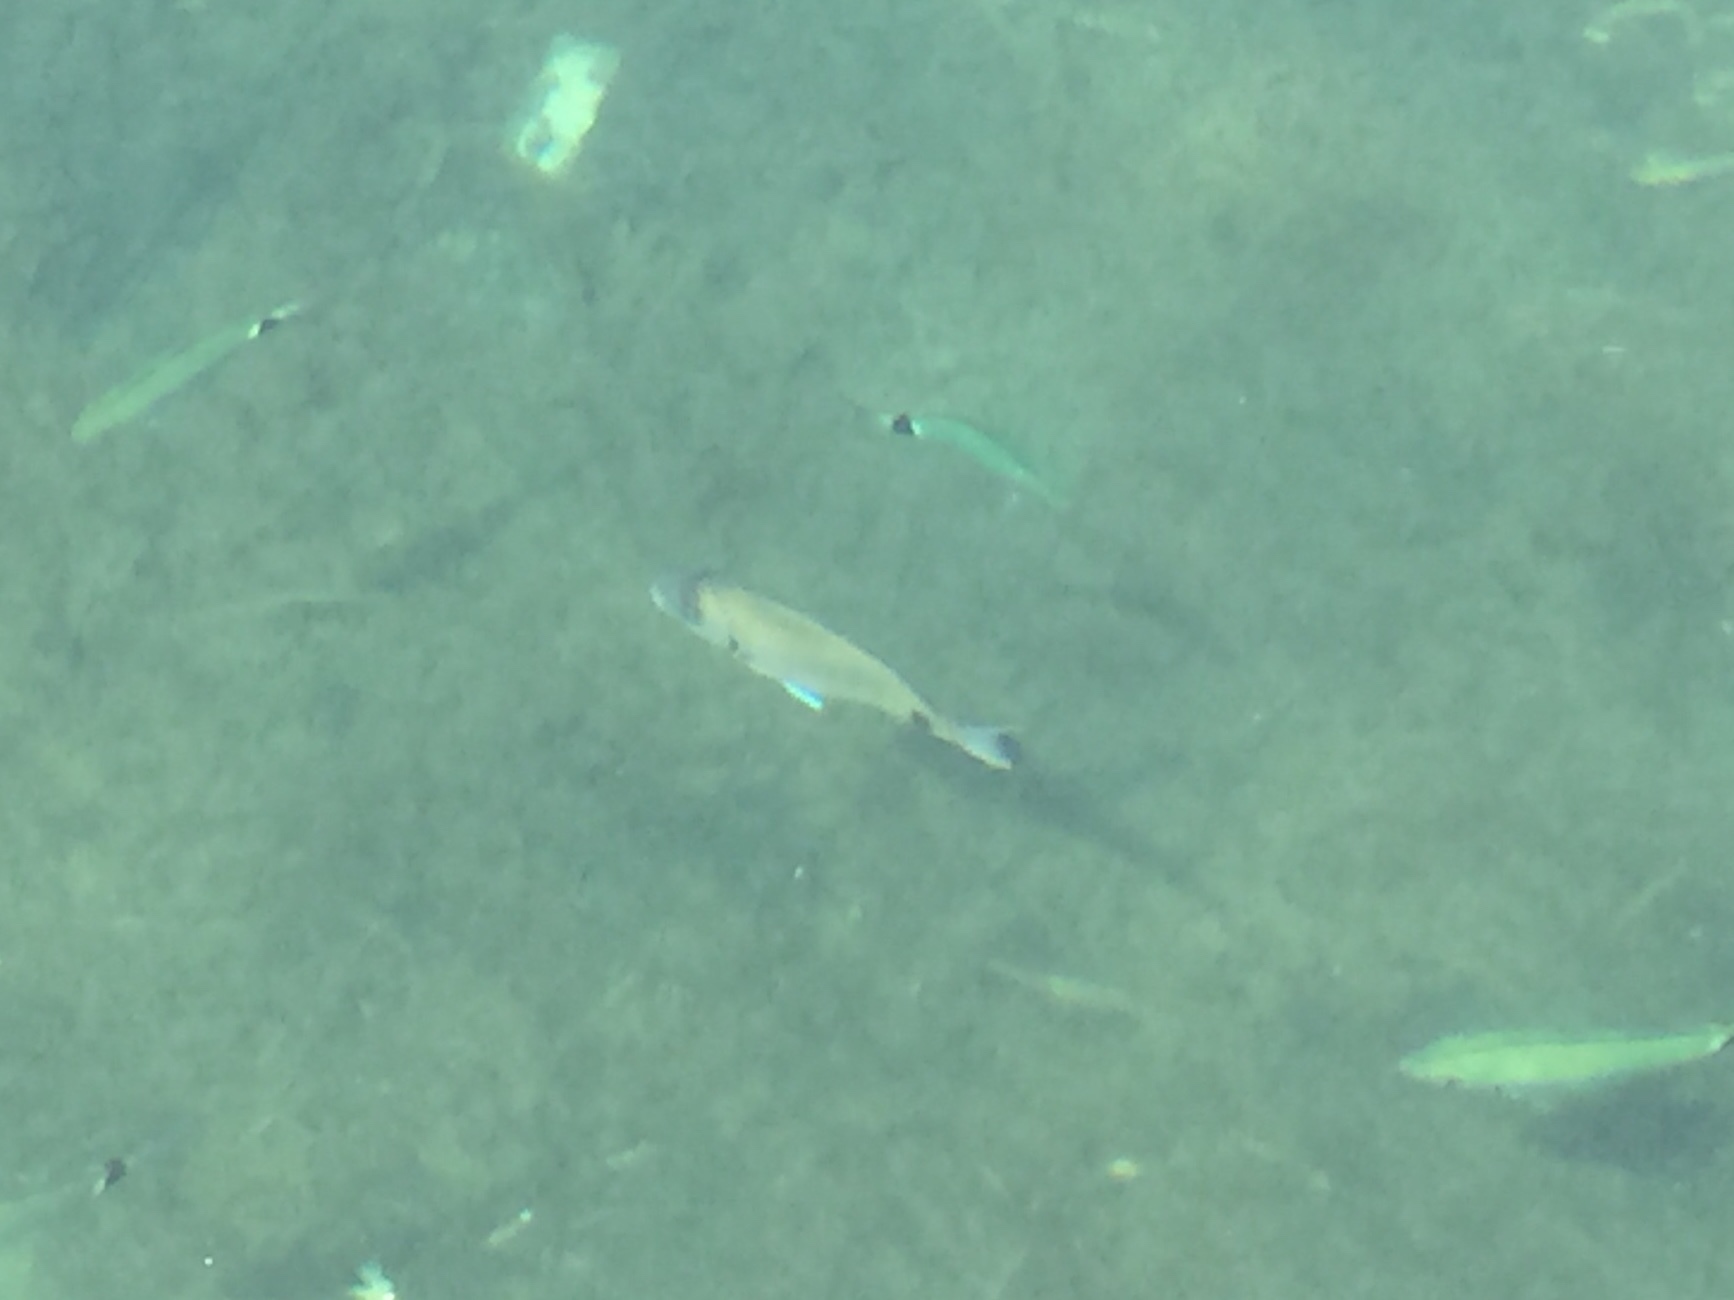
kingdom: Animalia
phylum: Chordata
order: Perciformes
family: Sparidae
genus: Diplodus
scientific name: Diplodus sargus
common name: White seabream
